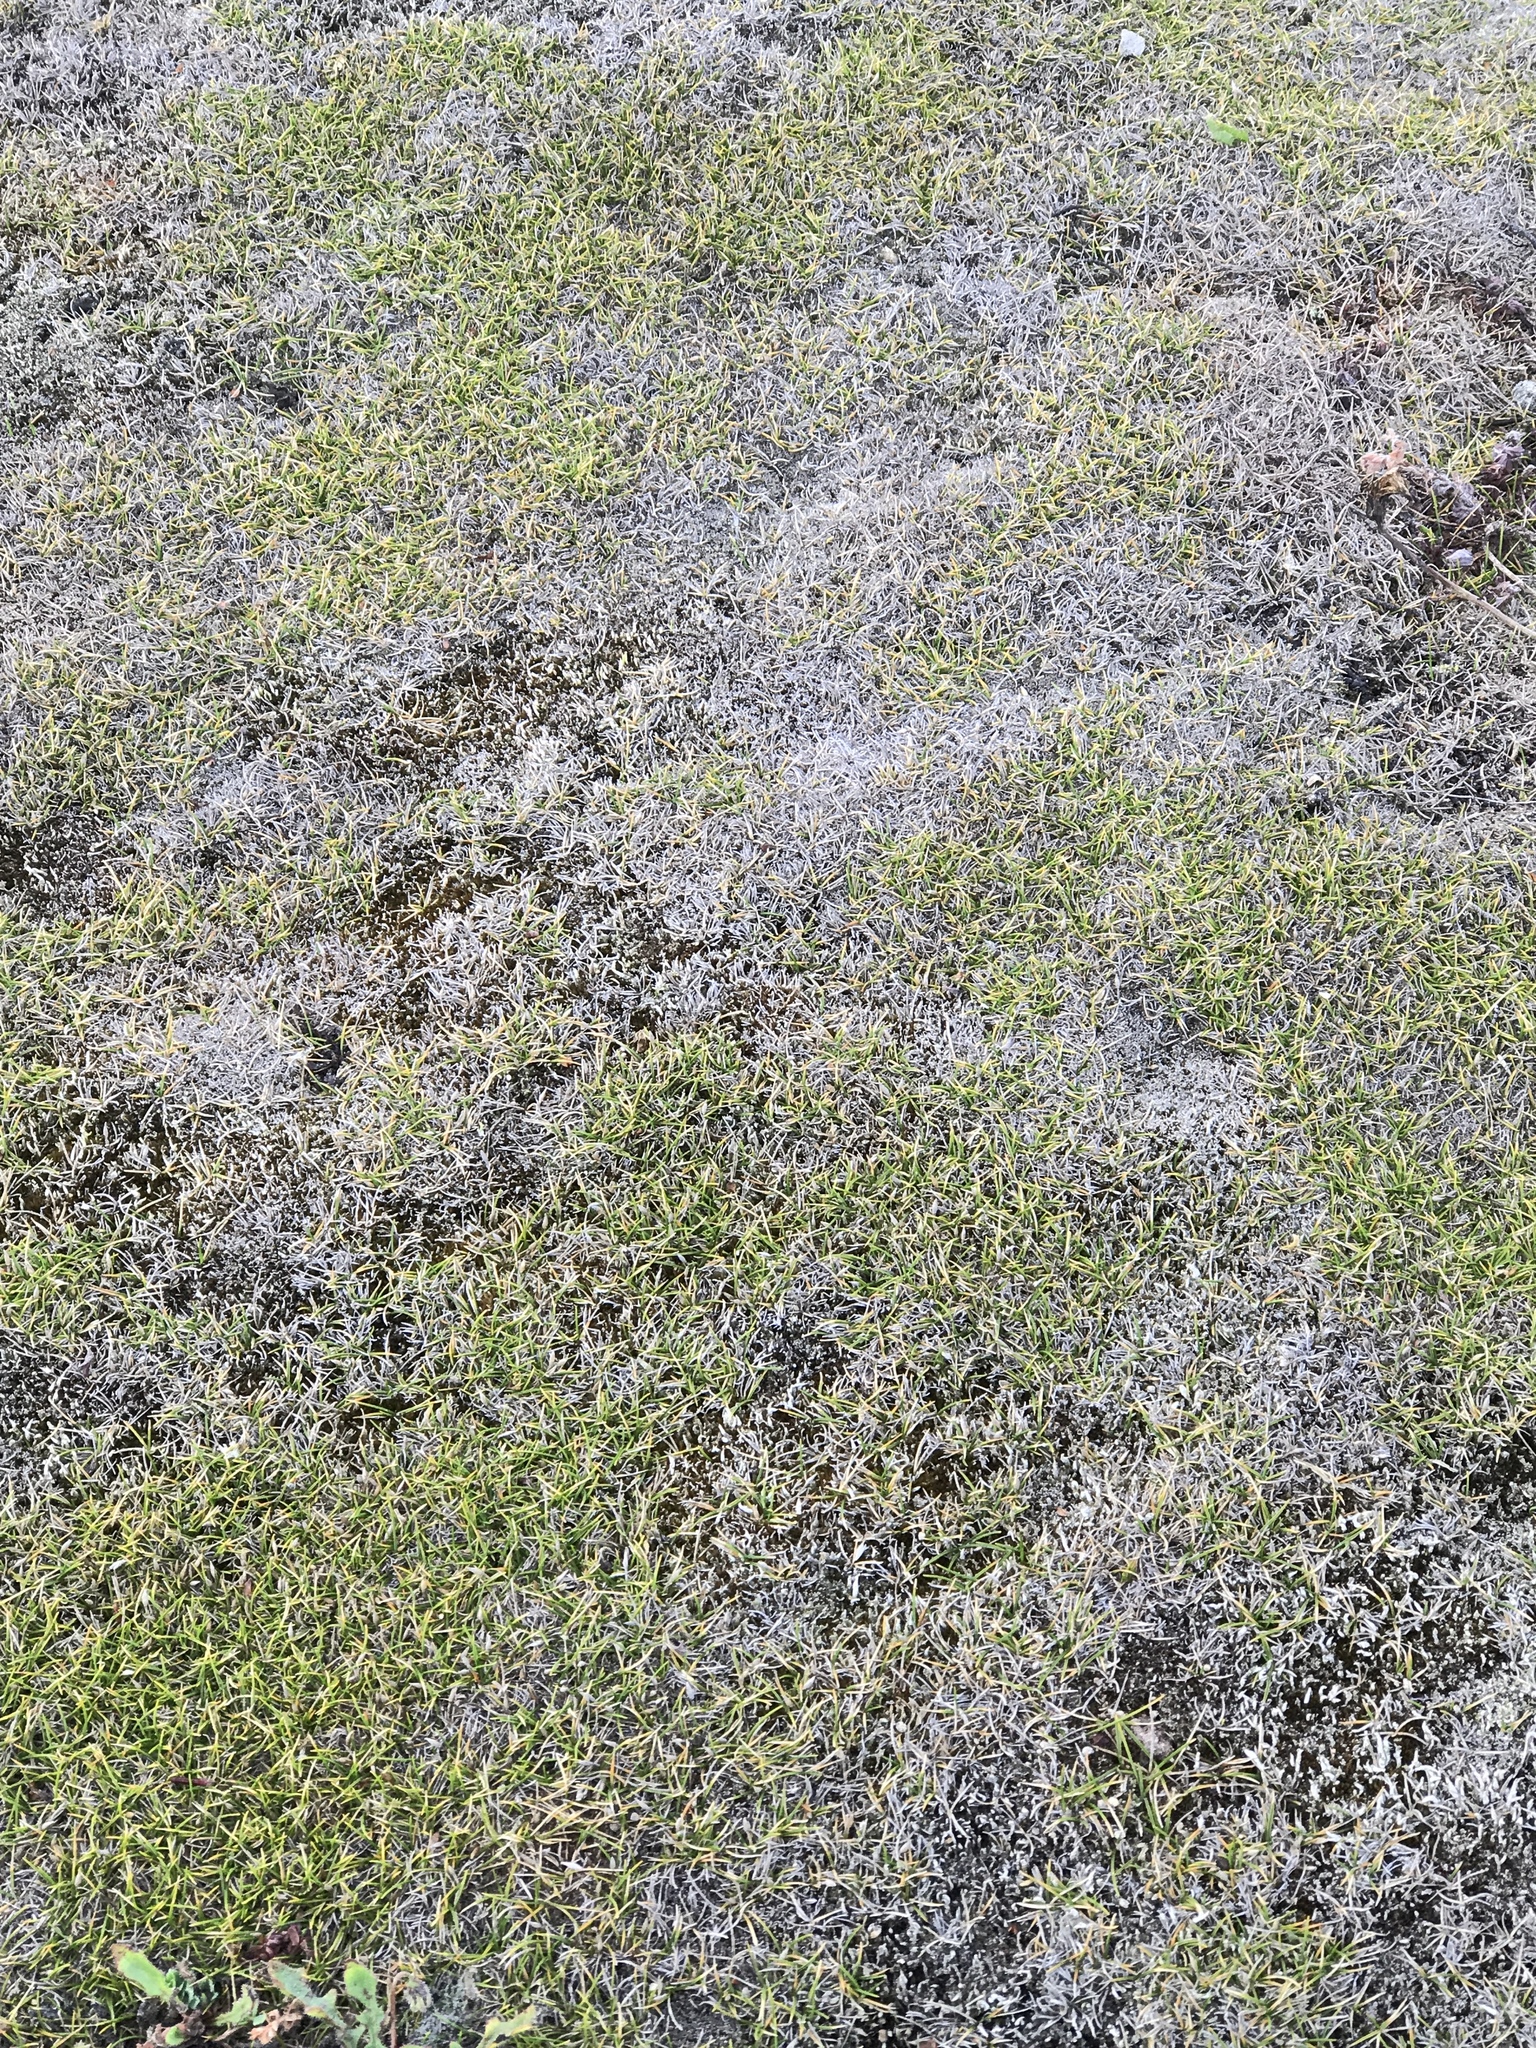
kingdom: Plantae
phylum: Tracheophyta
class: Liliopsida
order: Poales
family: Poaceae
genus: Zoysia
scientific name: Zoysia minima
